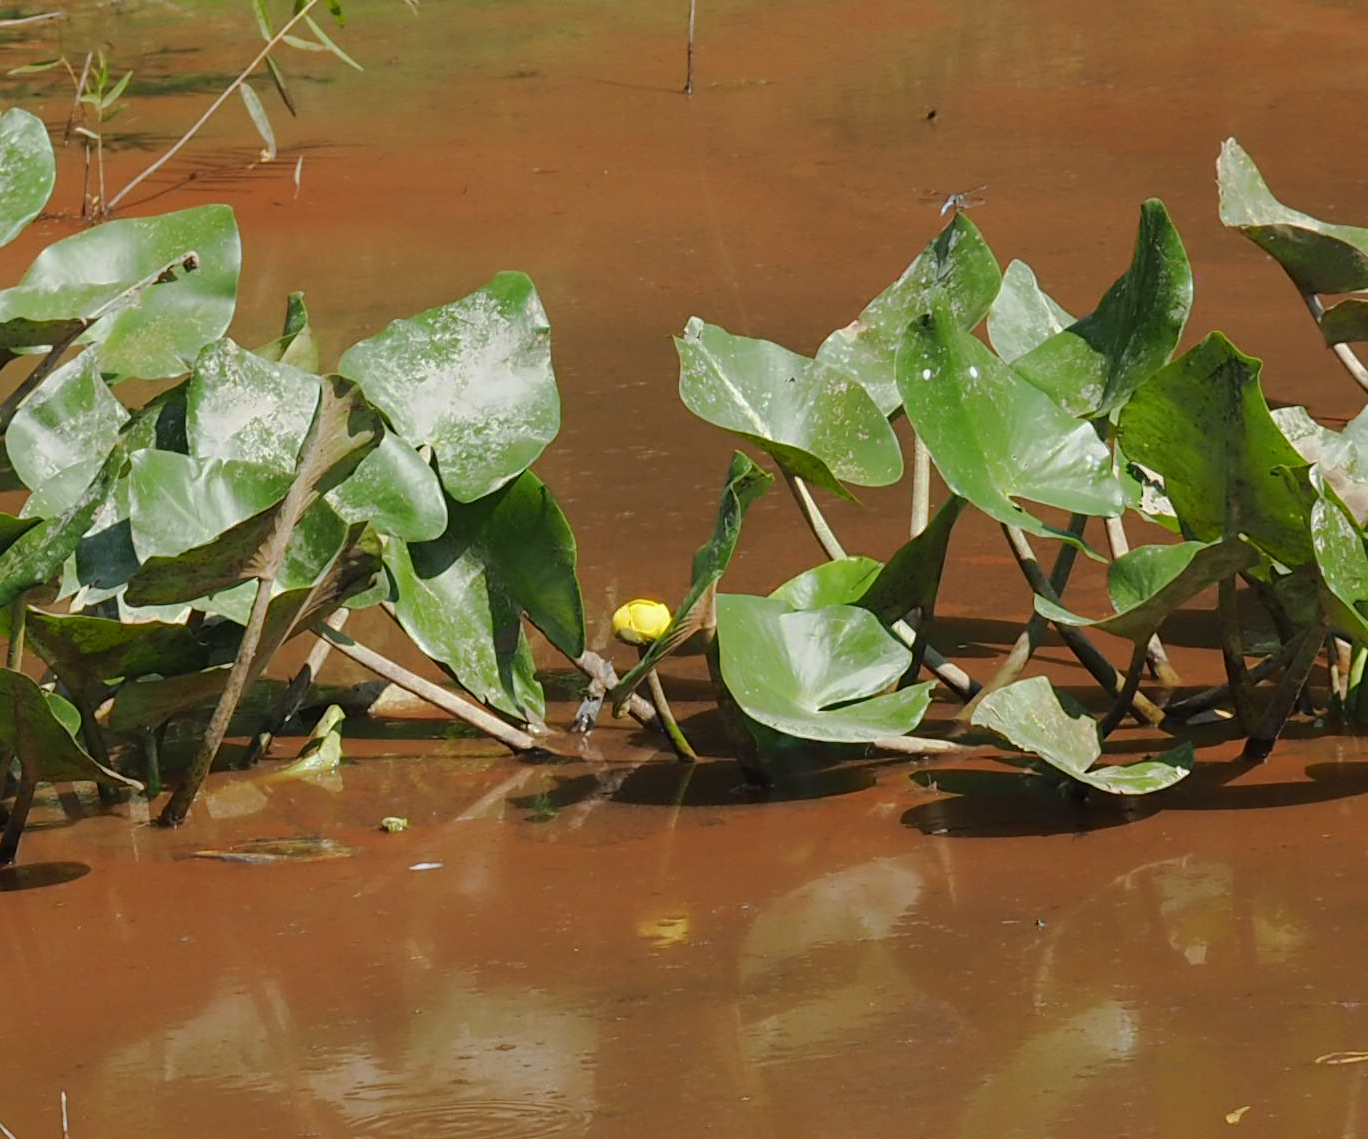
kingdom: Plantae
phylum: Tracheophyta
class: Magnoliopsida
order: Nymphaeales
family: Nymphaeaceae
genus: Nuphar
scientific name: Nuphar advena
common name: Spatter-dock
